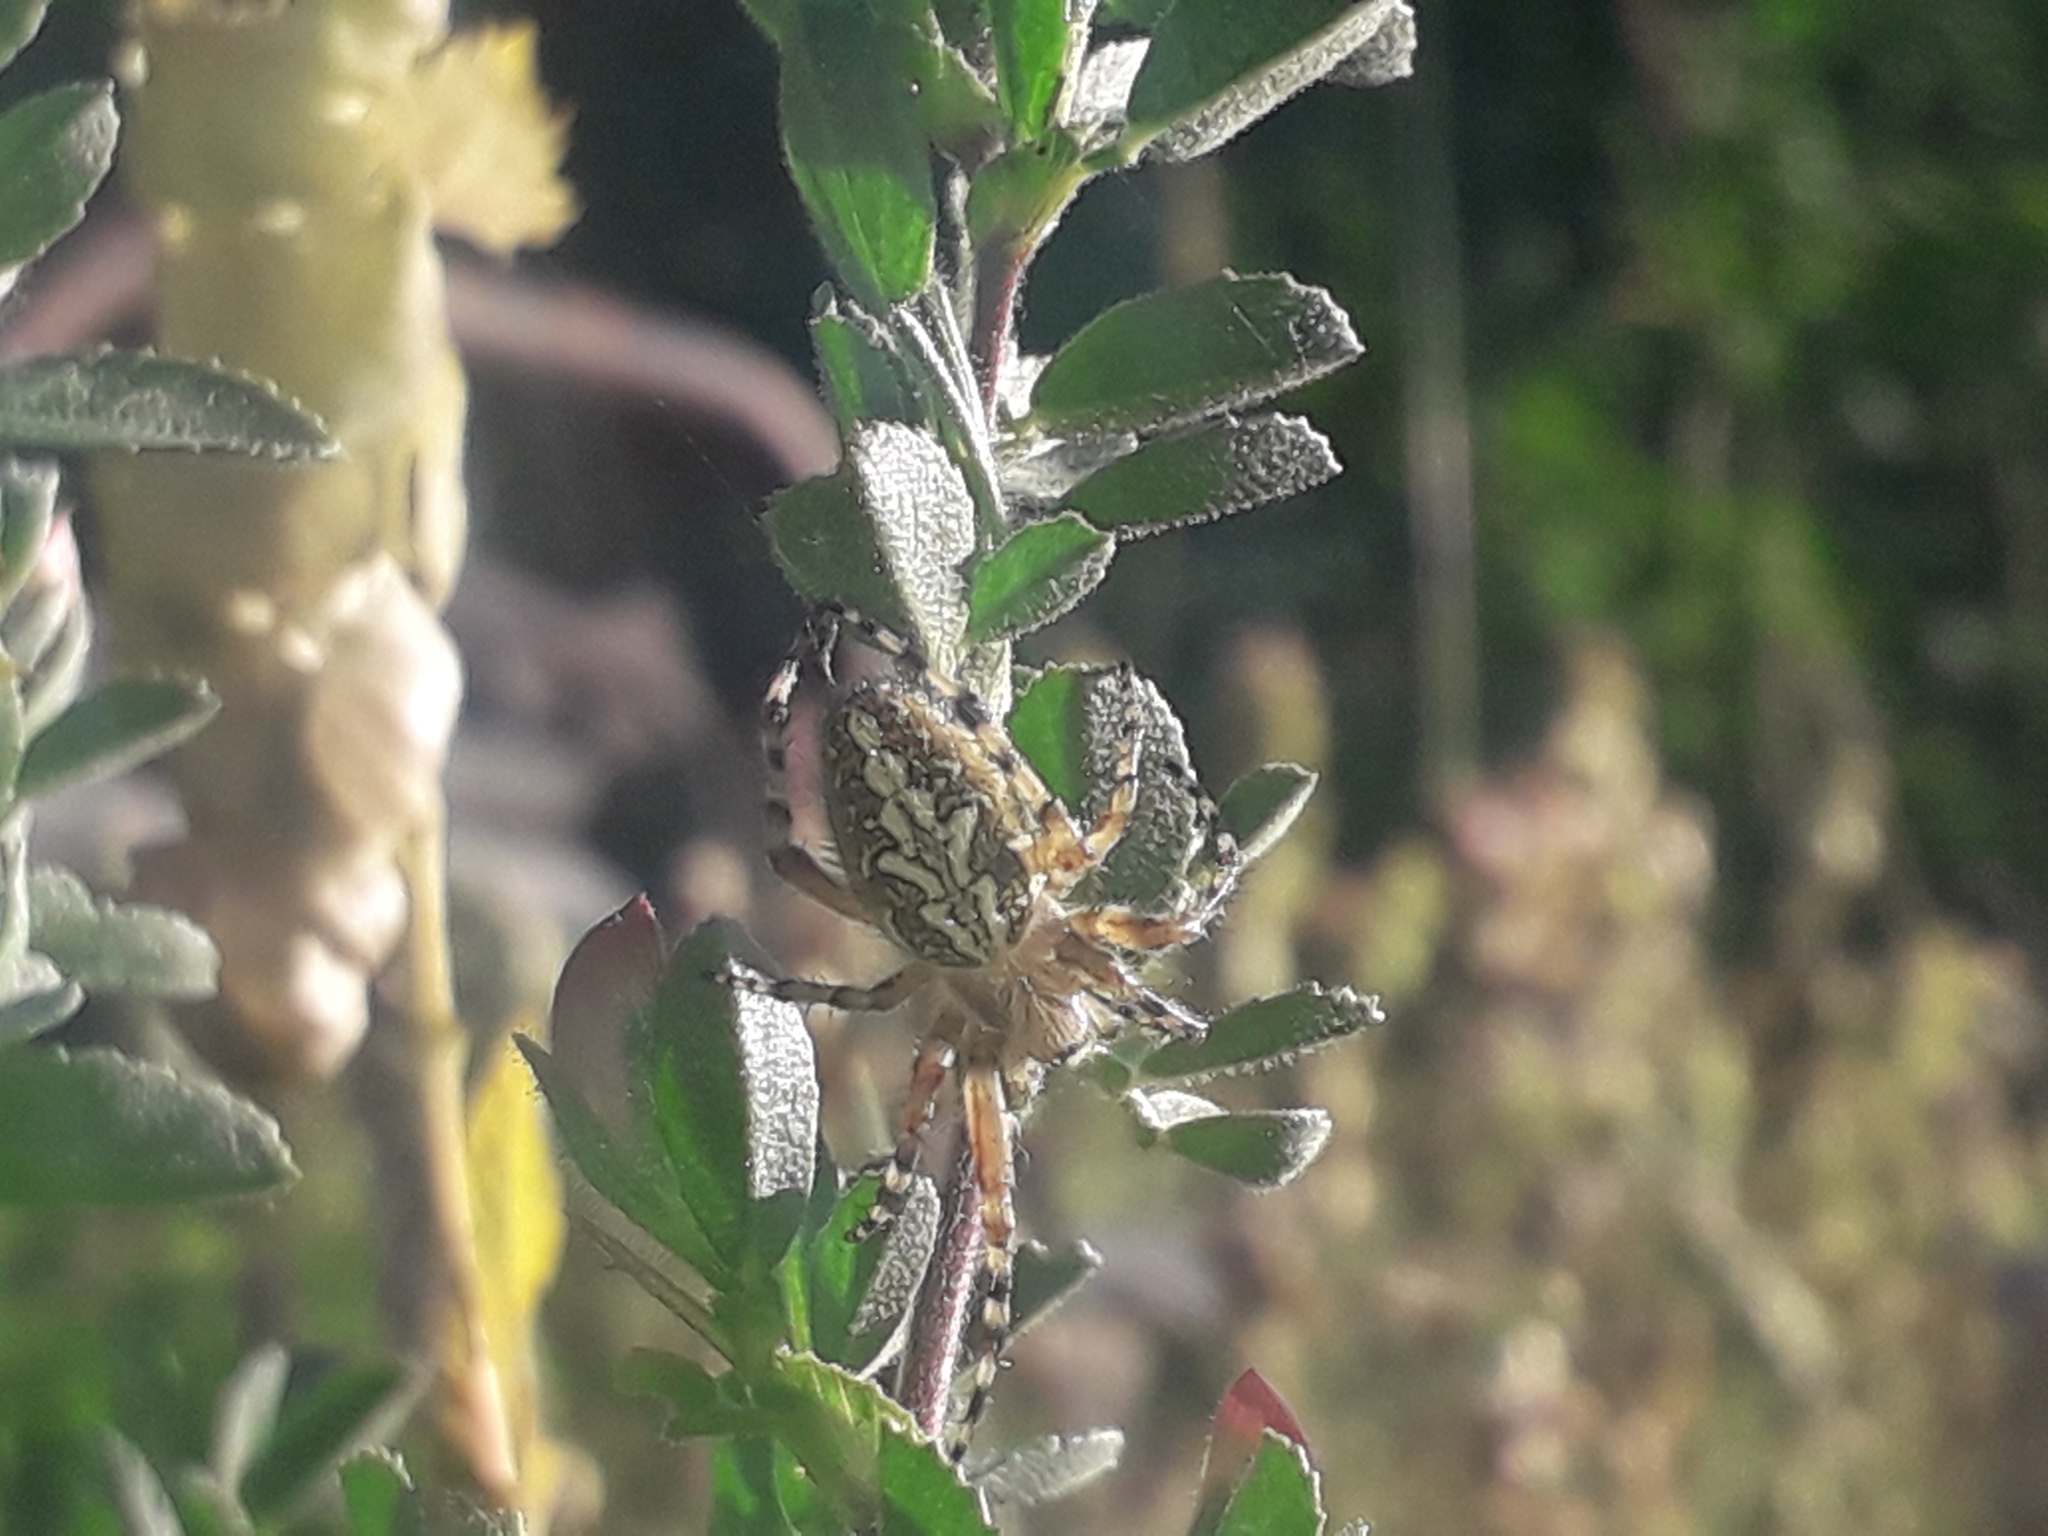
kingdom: Animalia
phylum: Arthropoda
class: Arachnida
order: Araneae
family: Araneidae
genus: Aculepeira
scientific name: Aculepeira ceropegia
